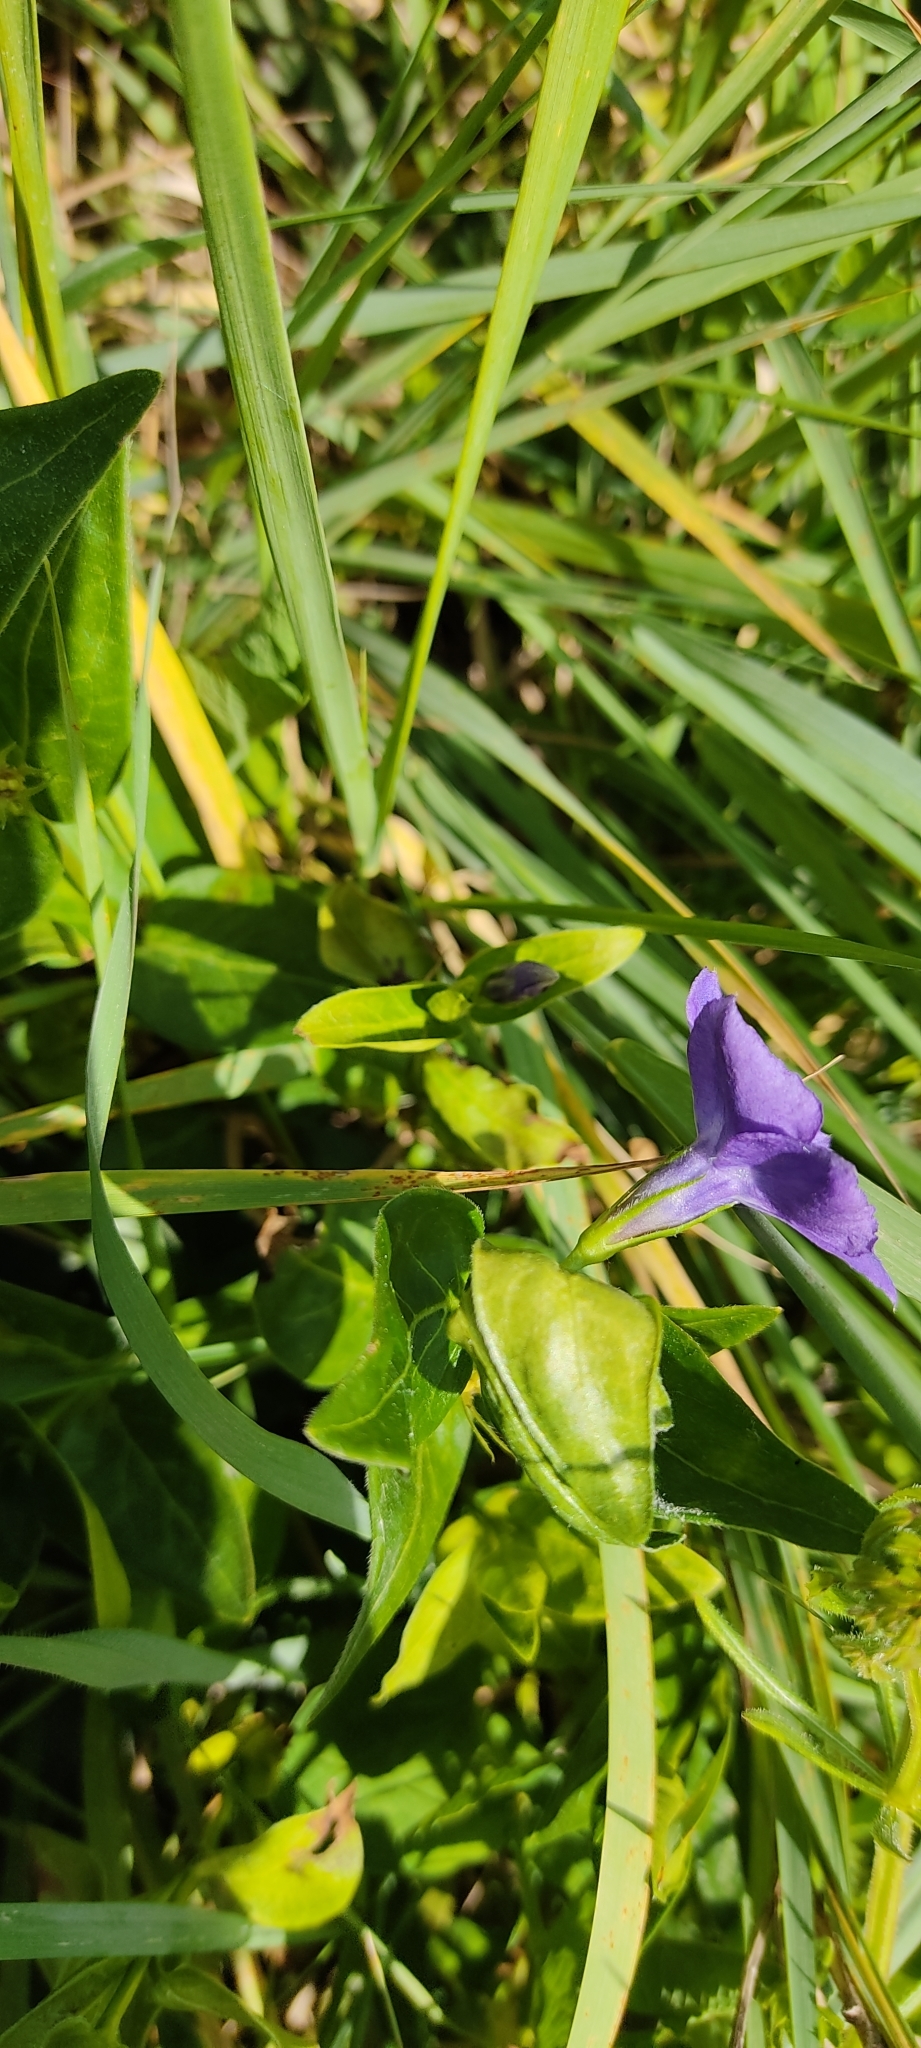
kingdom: Plantae
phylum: Tracheophyta
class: Magnoliopsida
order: Gentianales
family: Apocynaceae
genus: Vinca
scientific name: Vinca major
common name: Greater periwinkle
